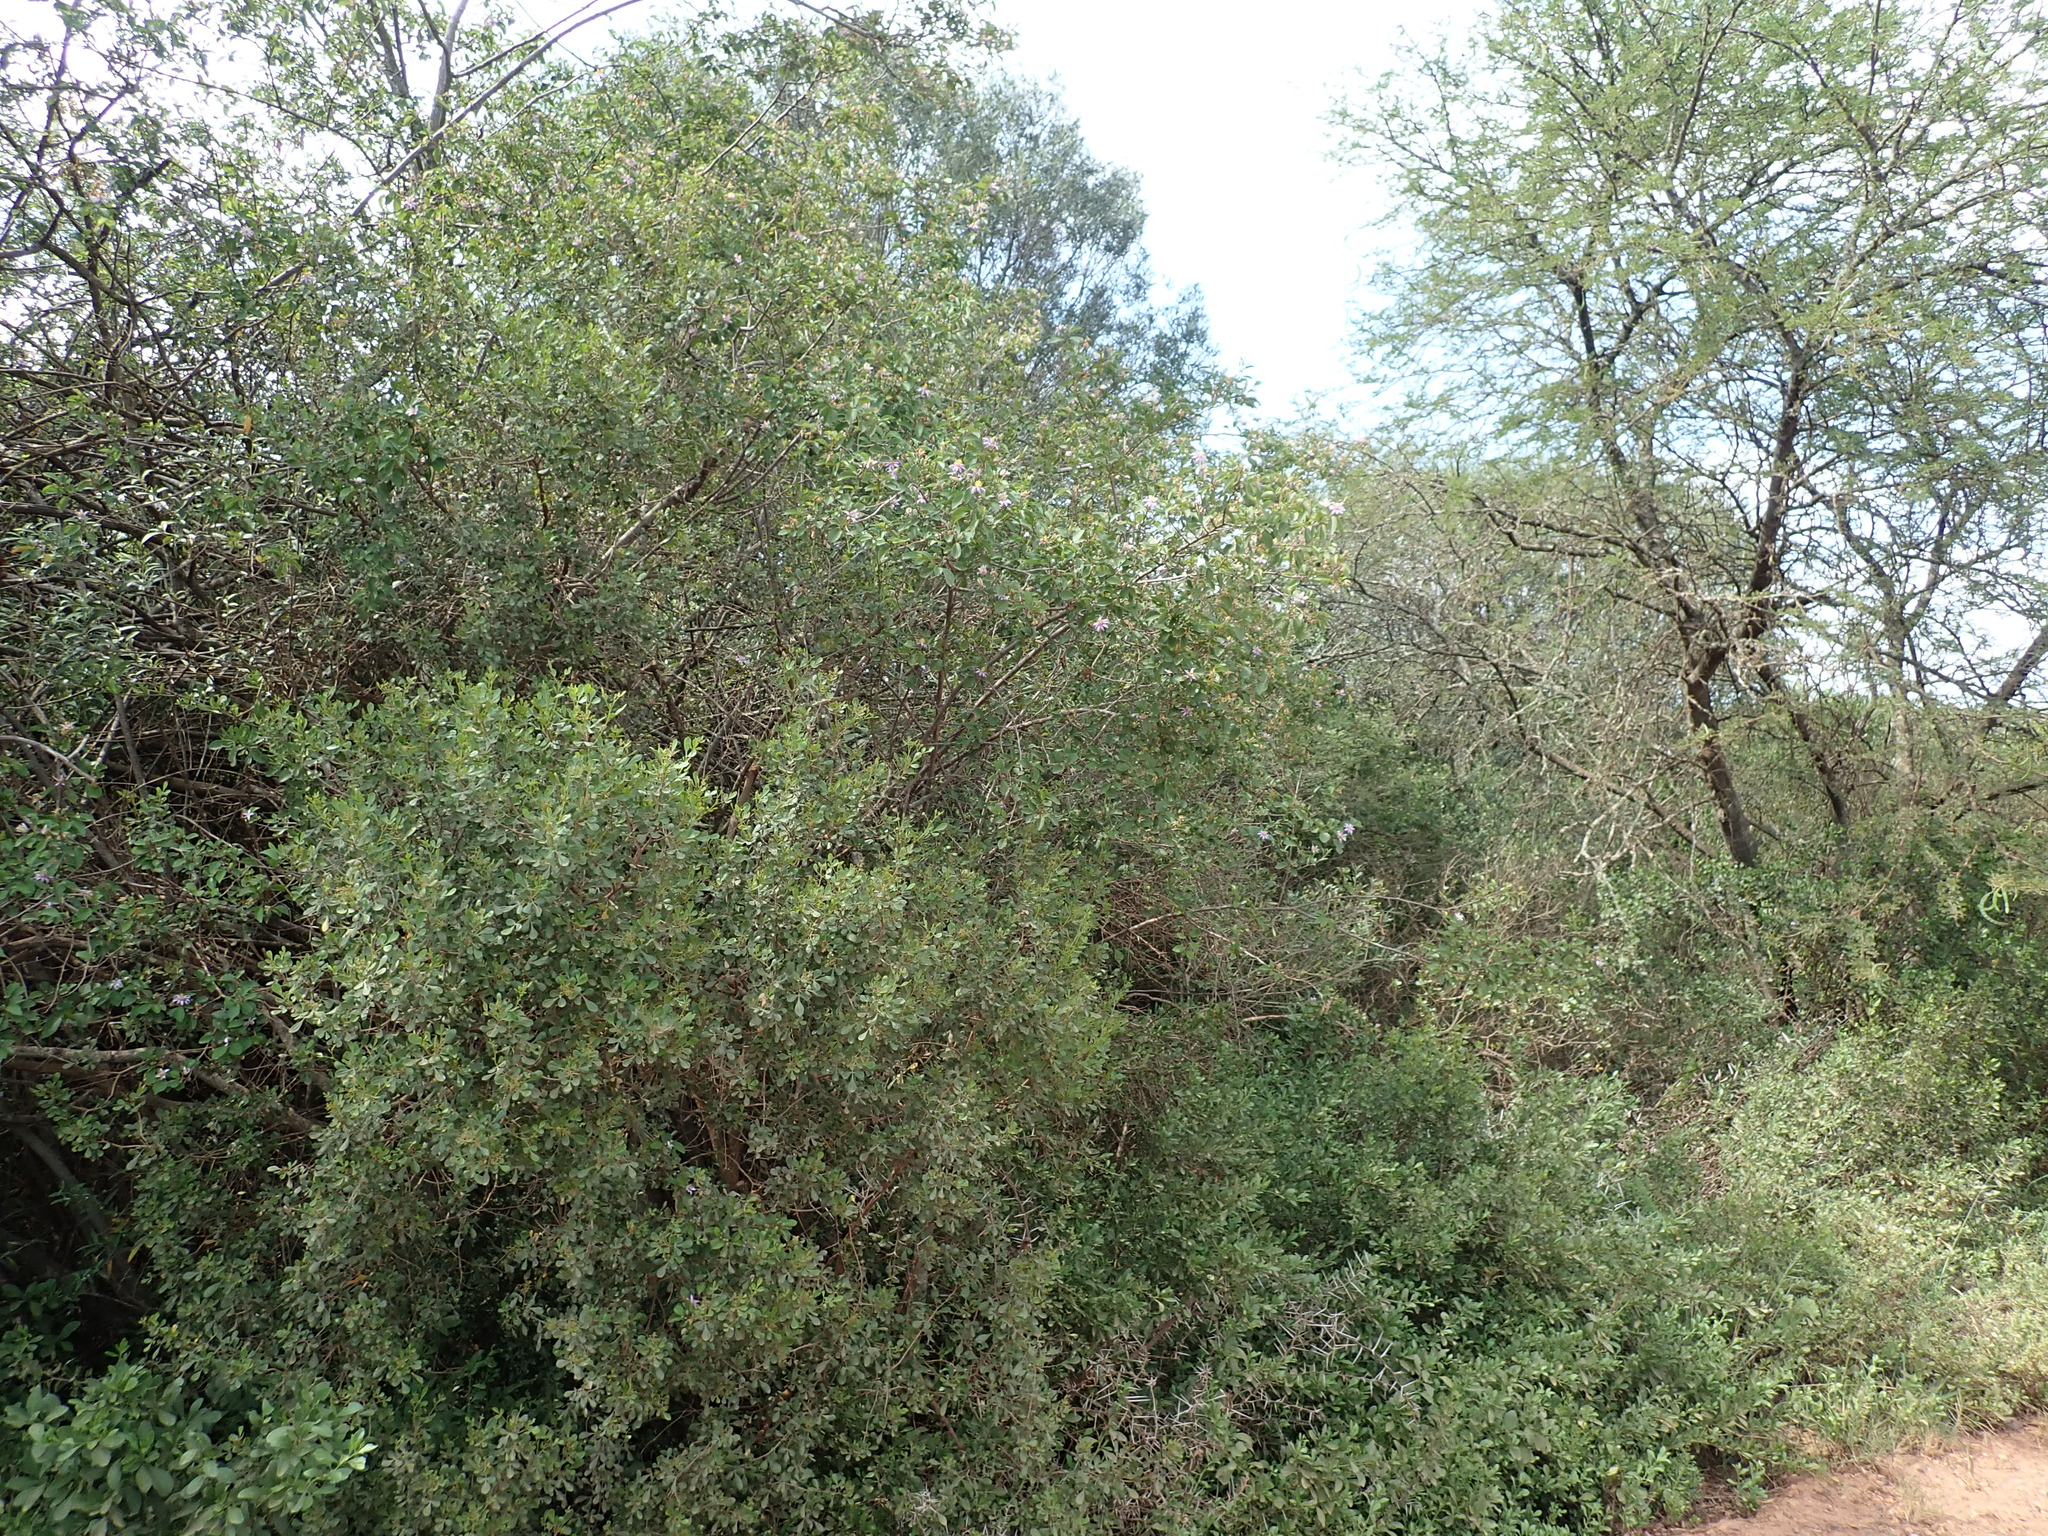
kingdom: Plantae
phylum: Tracheophyta
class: Magnoliopsida
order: Malvales
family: Malvaceae
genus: Grewia
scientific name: Grewia occidentalis
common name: Crossberry
